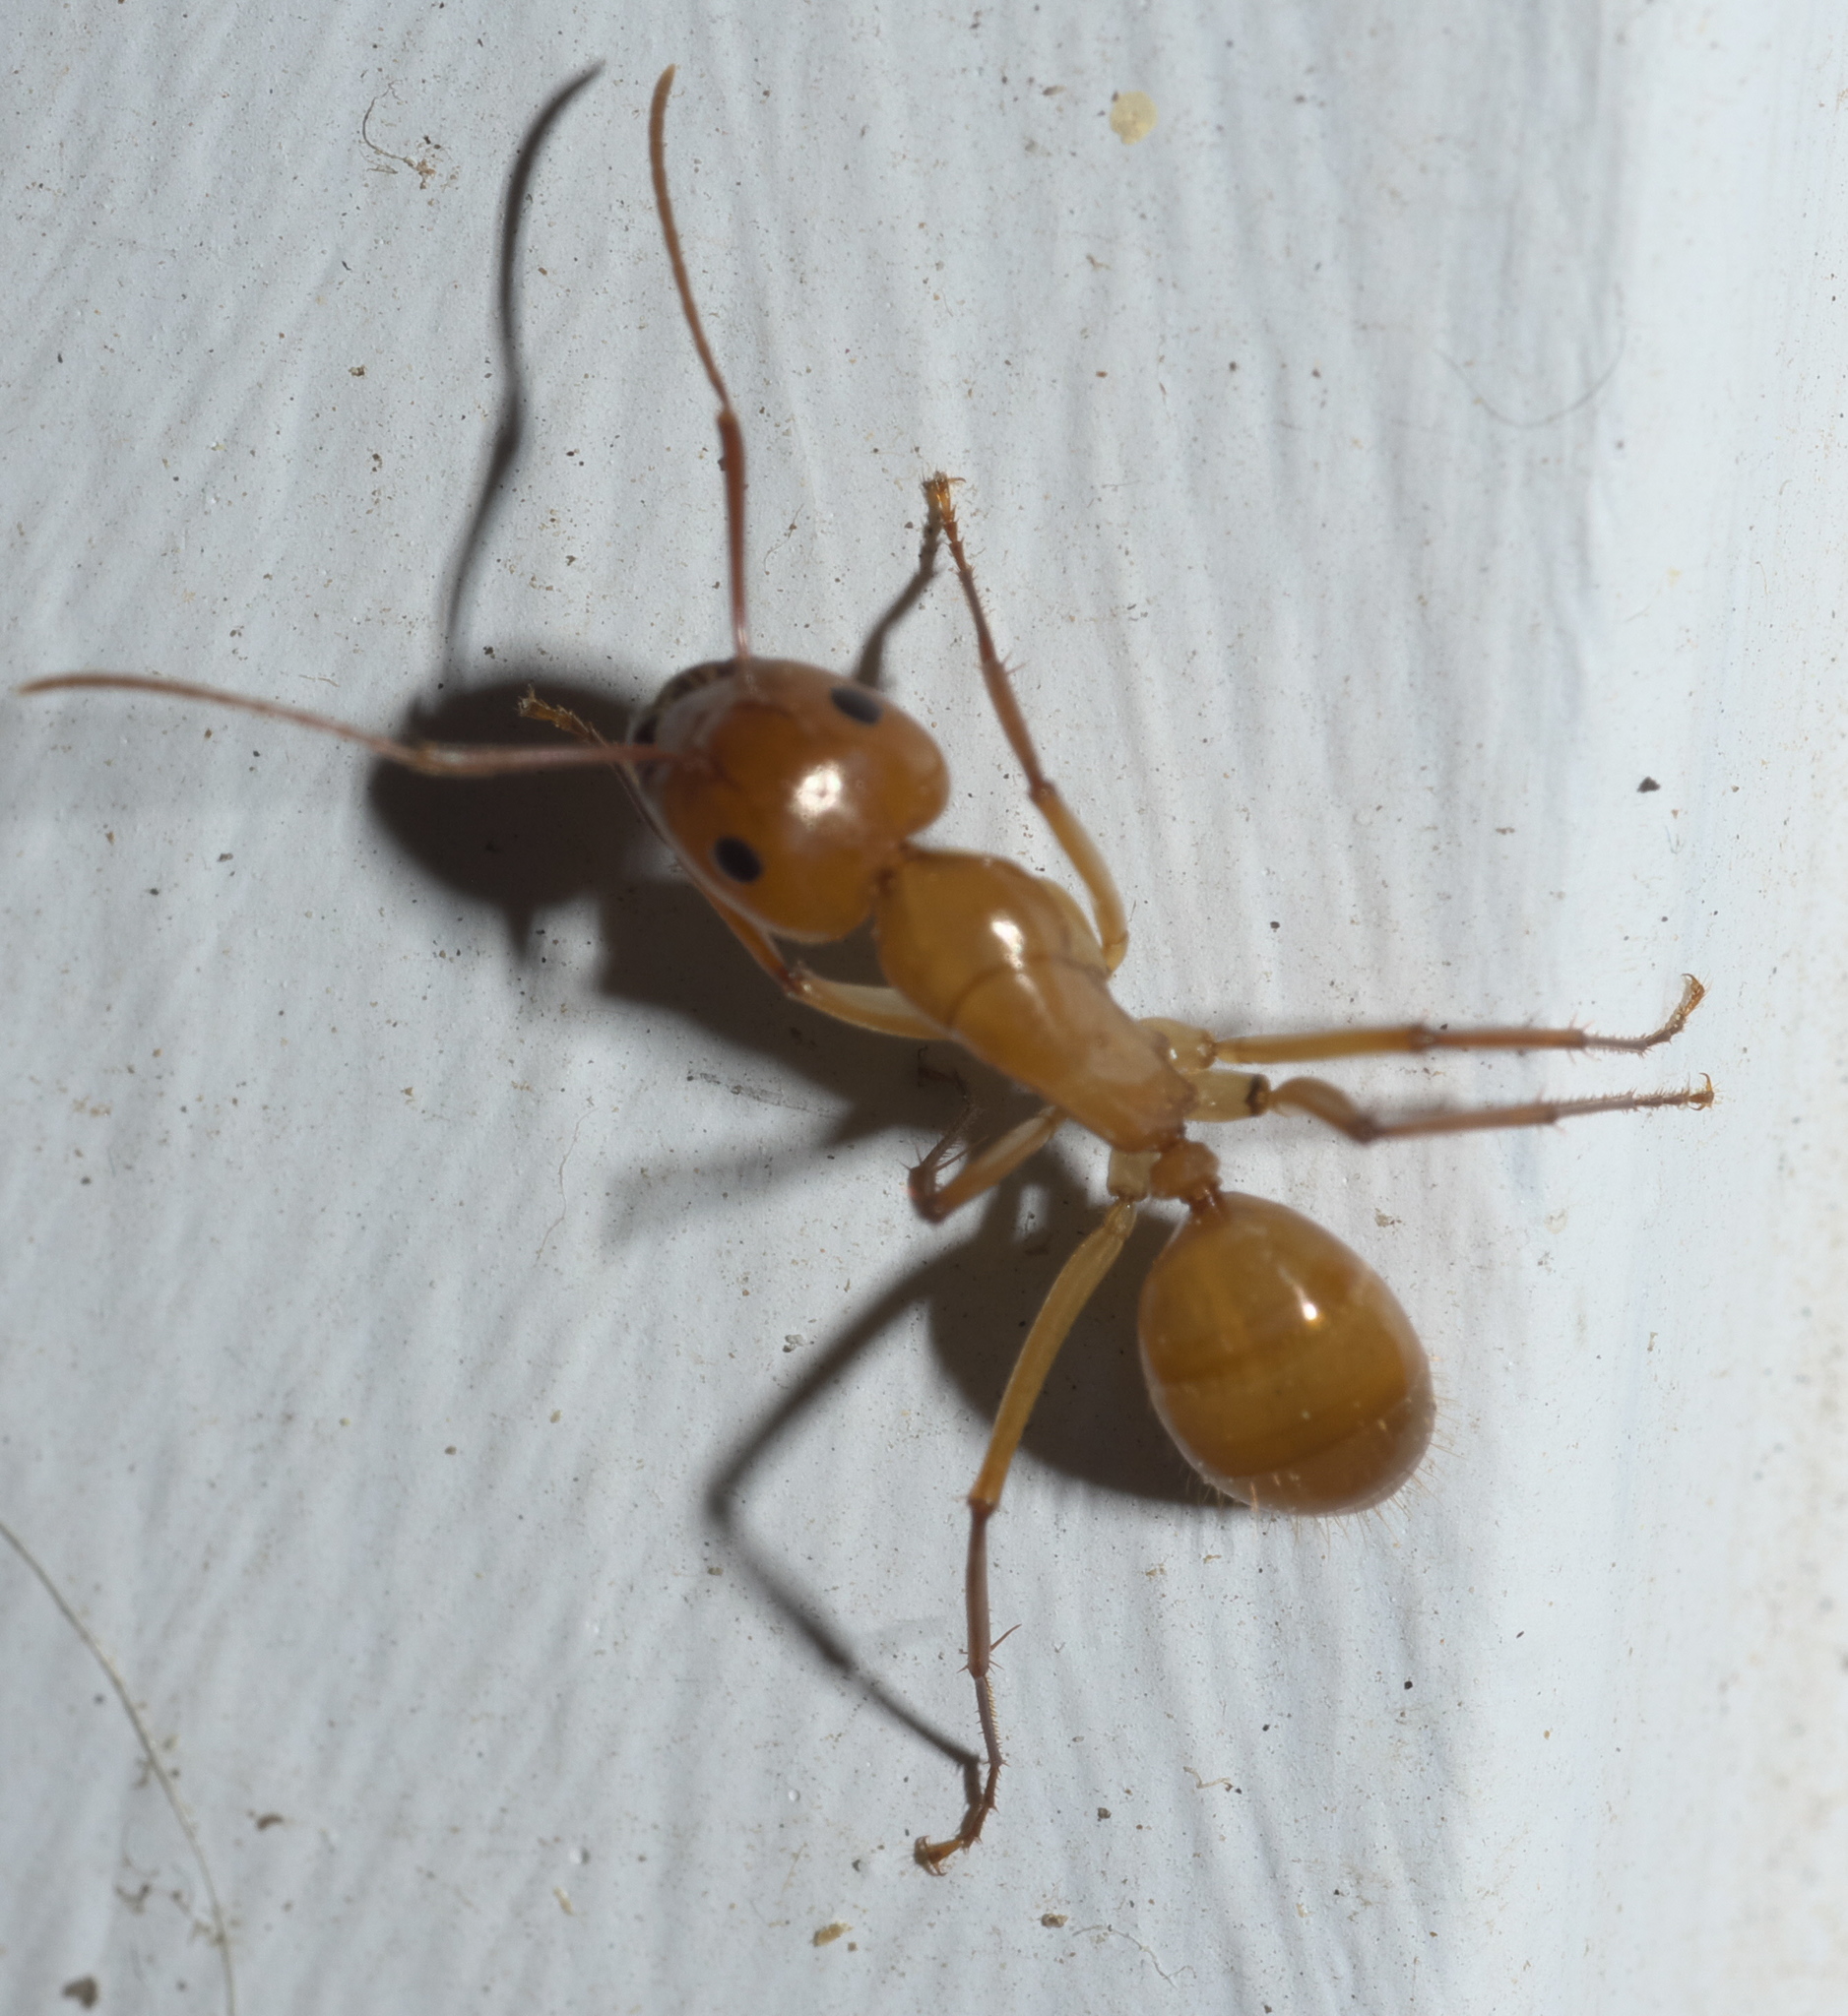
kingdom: Animalia
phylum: Arthropoda
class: Insecta
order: Hymenoptera
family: Formicidae
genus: Camponotus
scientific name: Camponotus castaneus
